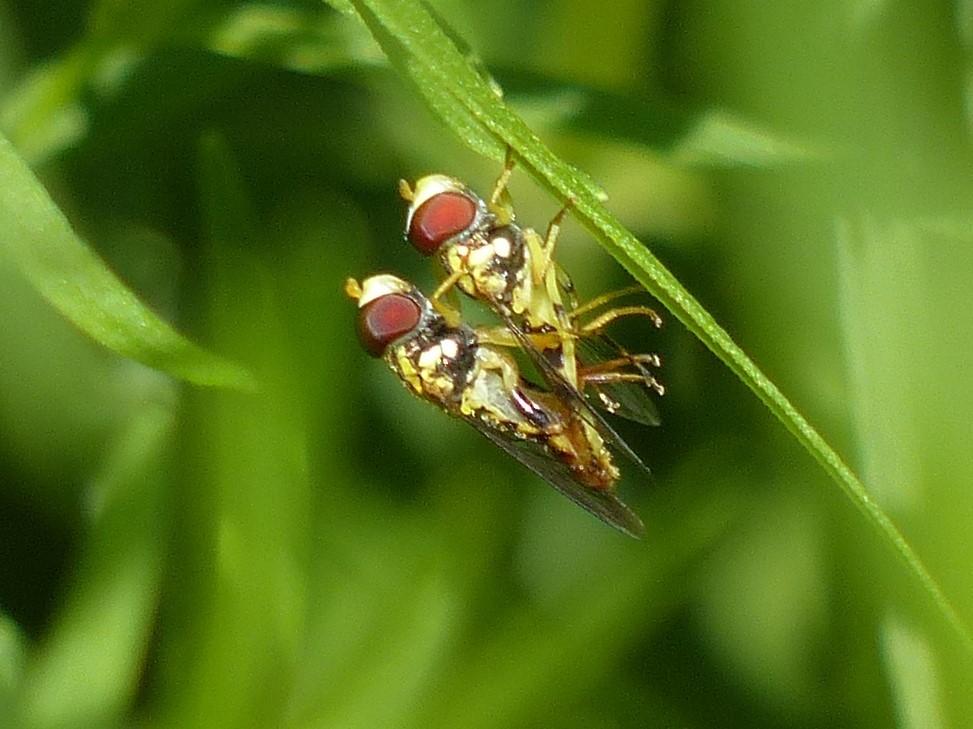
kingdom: Animalia
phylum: Arthropoda
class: Insecta
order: Diptera
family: Syrphidae
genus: Toxomerus
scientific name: Toxomerus geminatus
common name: Eastern calligrapher
